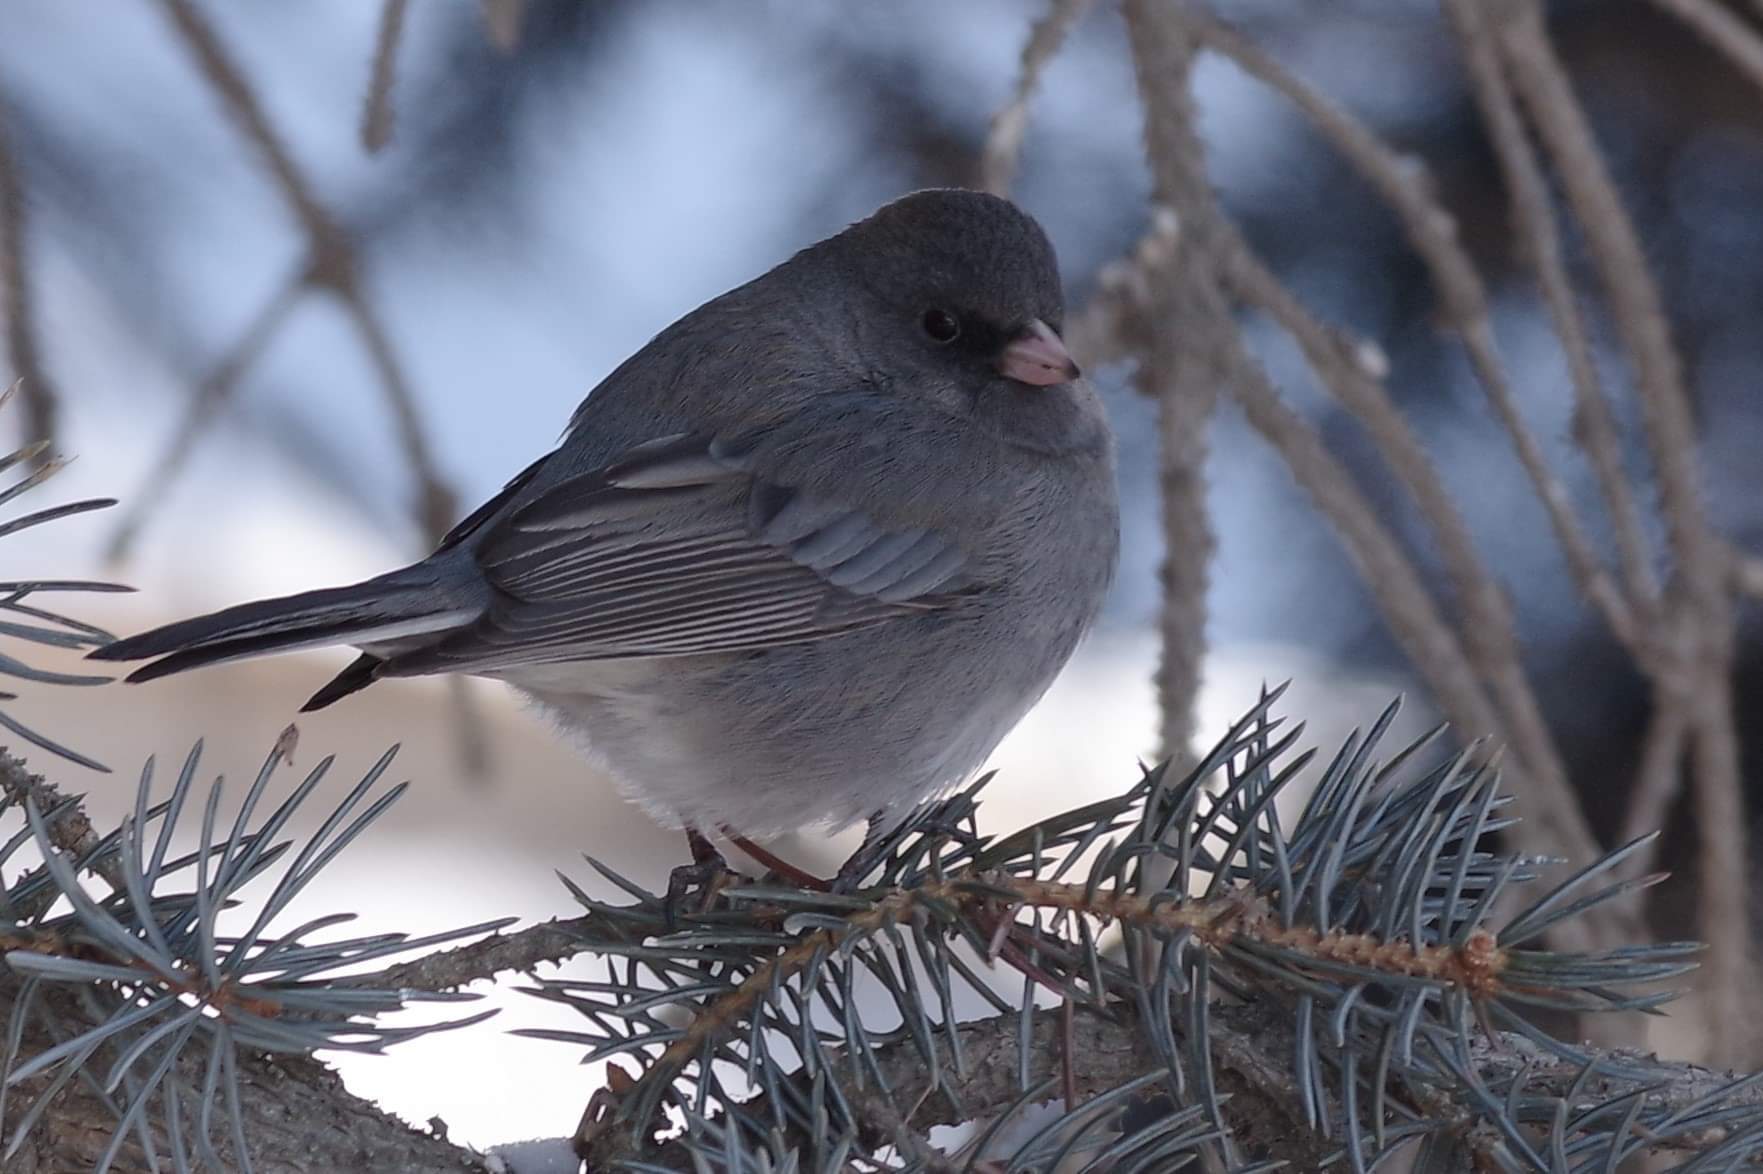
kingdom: Animalia
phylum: Chordata
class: Aves
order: Passeriformes
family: Passerellidae
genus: Junco
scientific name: Junco hyemalis
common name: Dark-eyed junco
